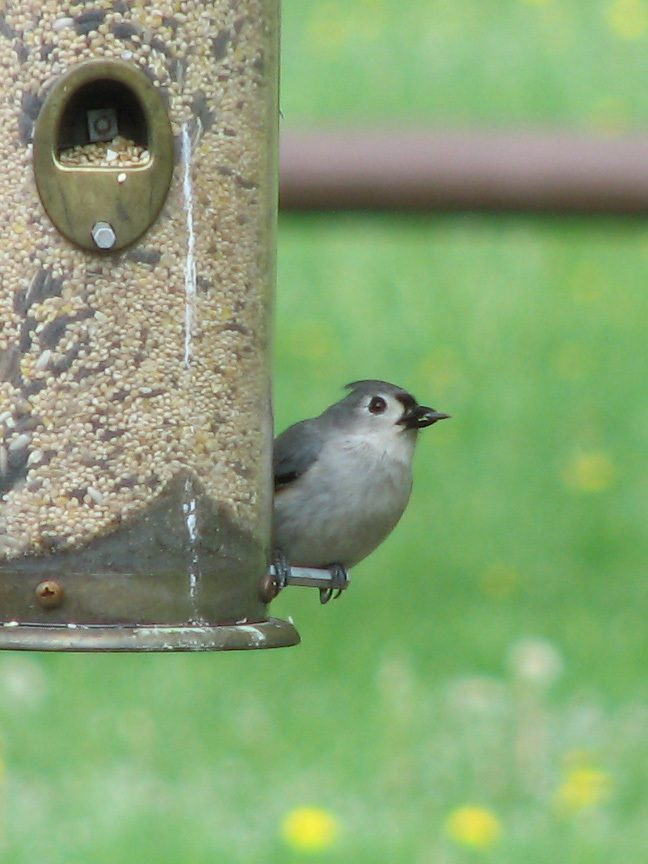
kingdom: Animalia
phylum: Chordata
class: Aves
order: Passeriformes
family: Paridae
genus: Baeolophus
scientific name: Baeolophus bicolor
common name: Tufted titmouse
